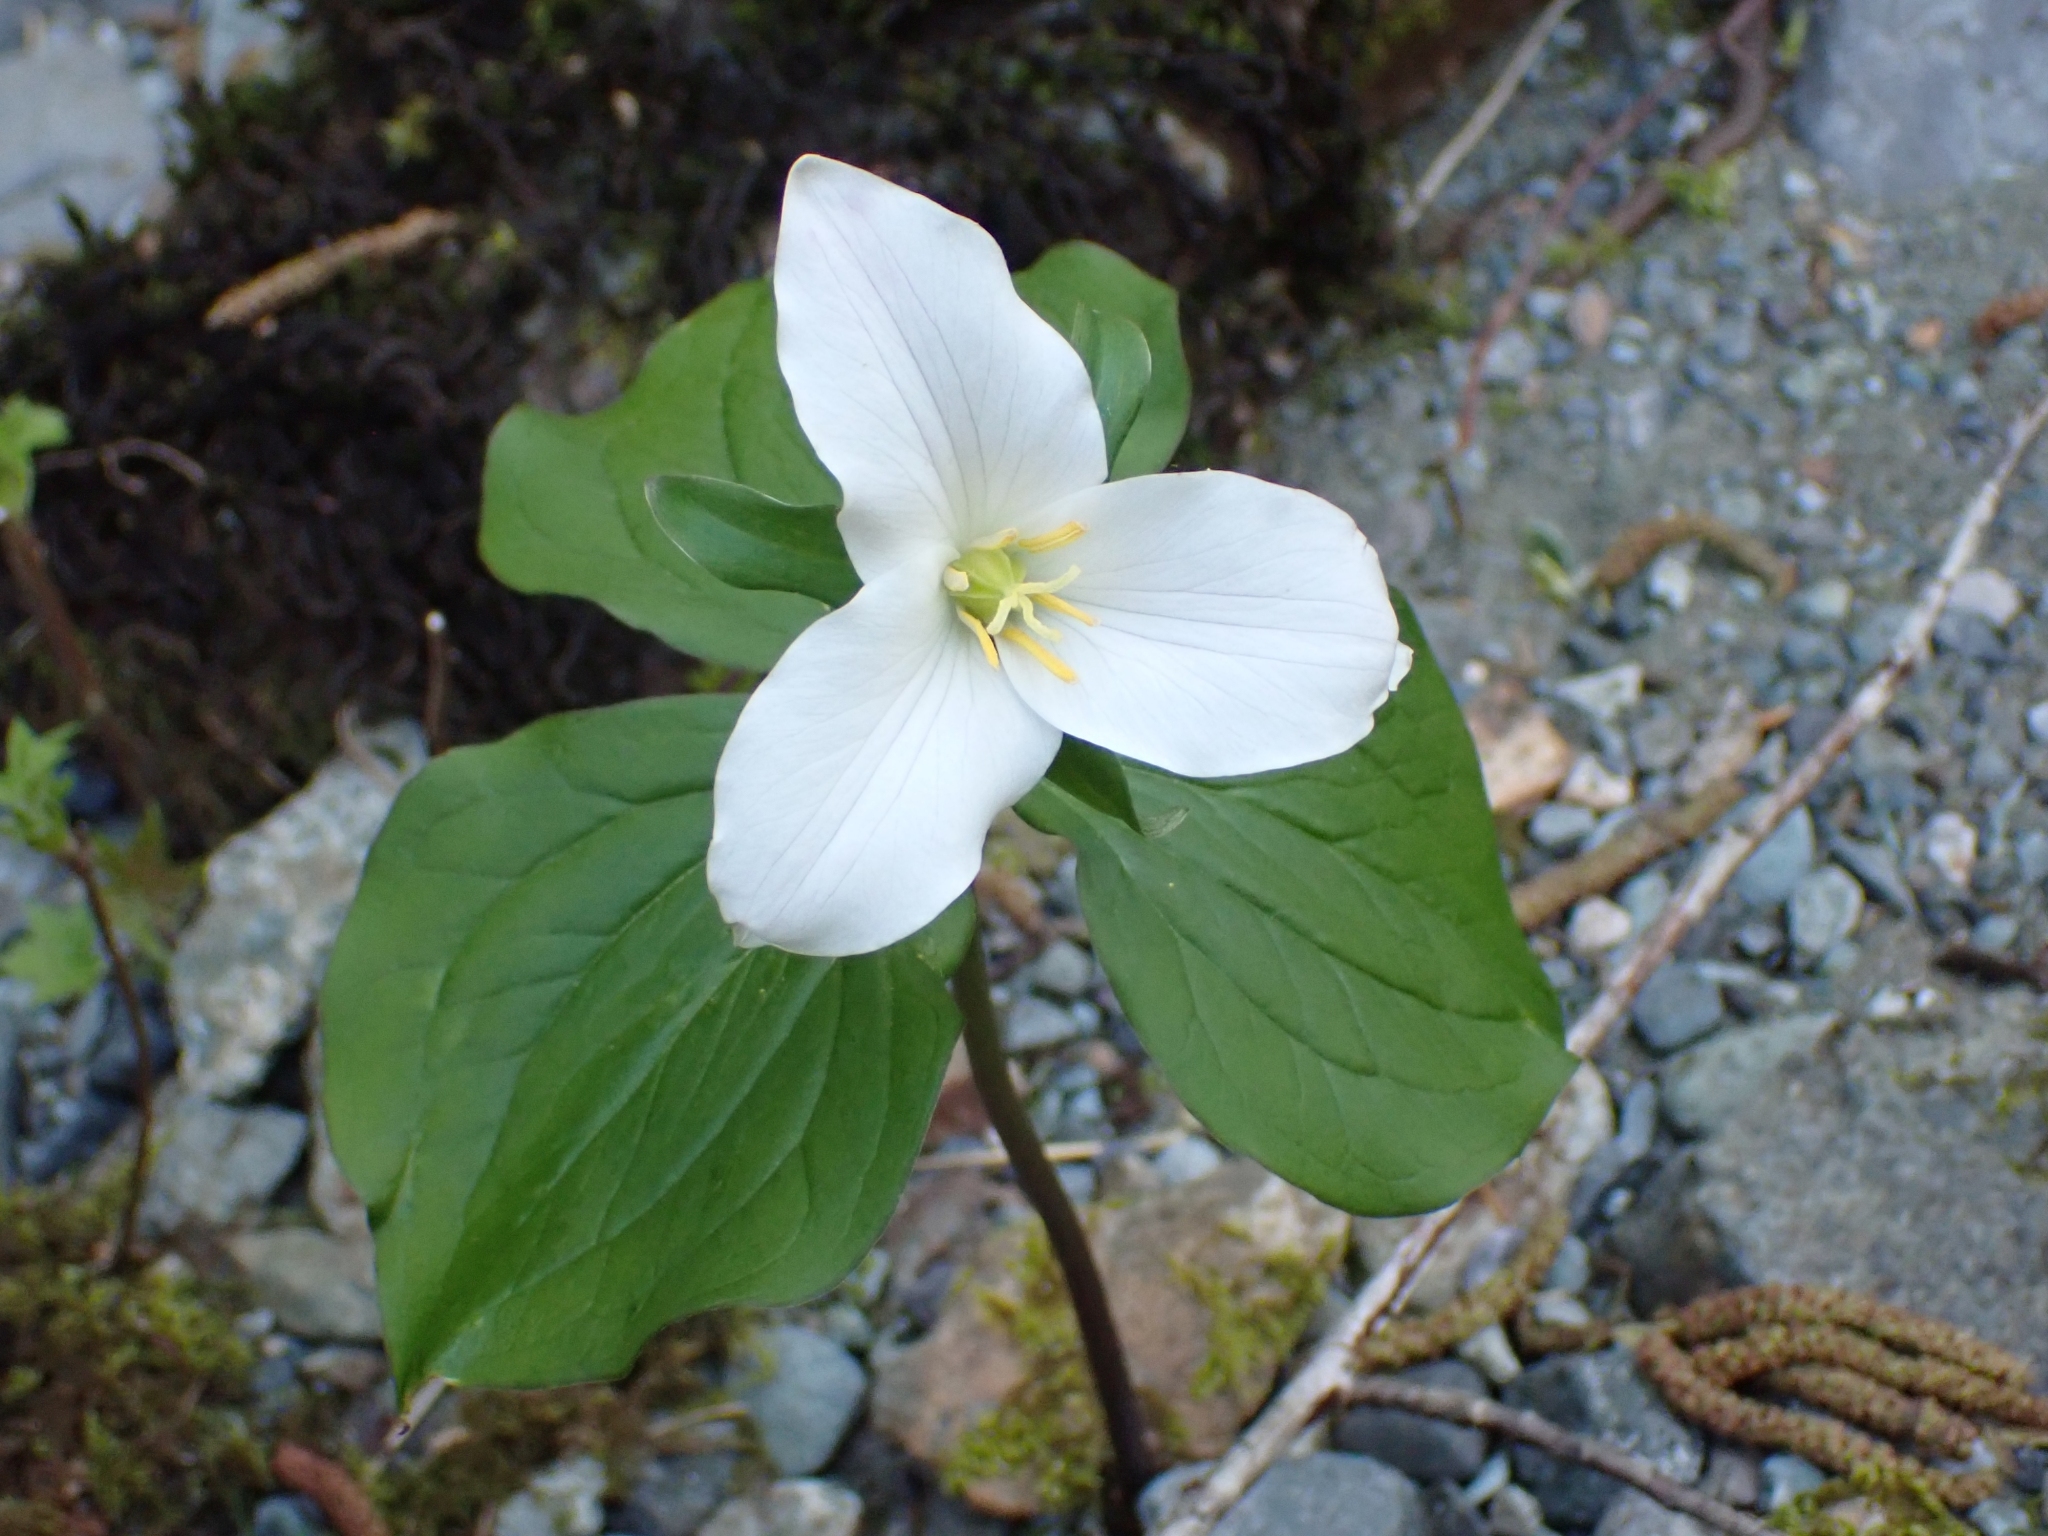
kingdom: Plantae
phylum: Tracheophyta
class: Liliopsida
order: Liliales
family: Melanthiaceae
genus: Trillium
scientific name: Trillium ovatum
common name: Pacific trillium
